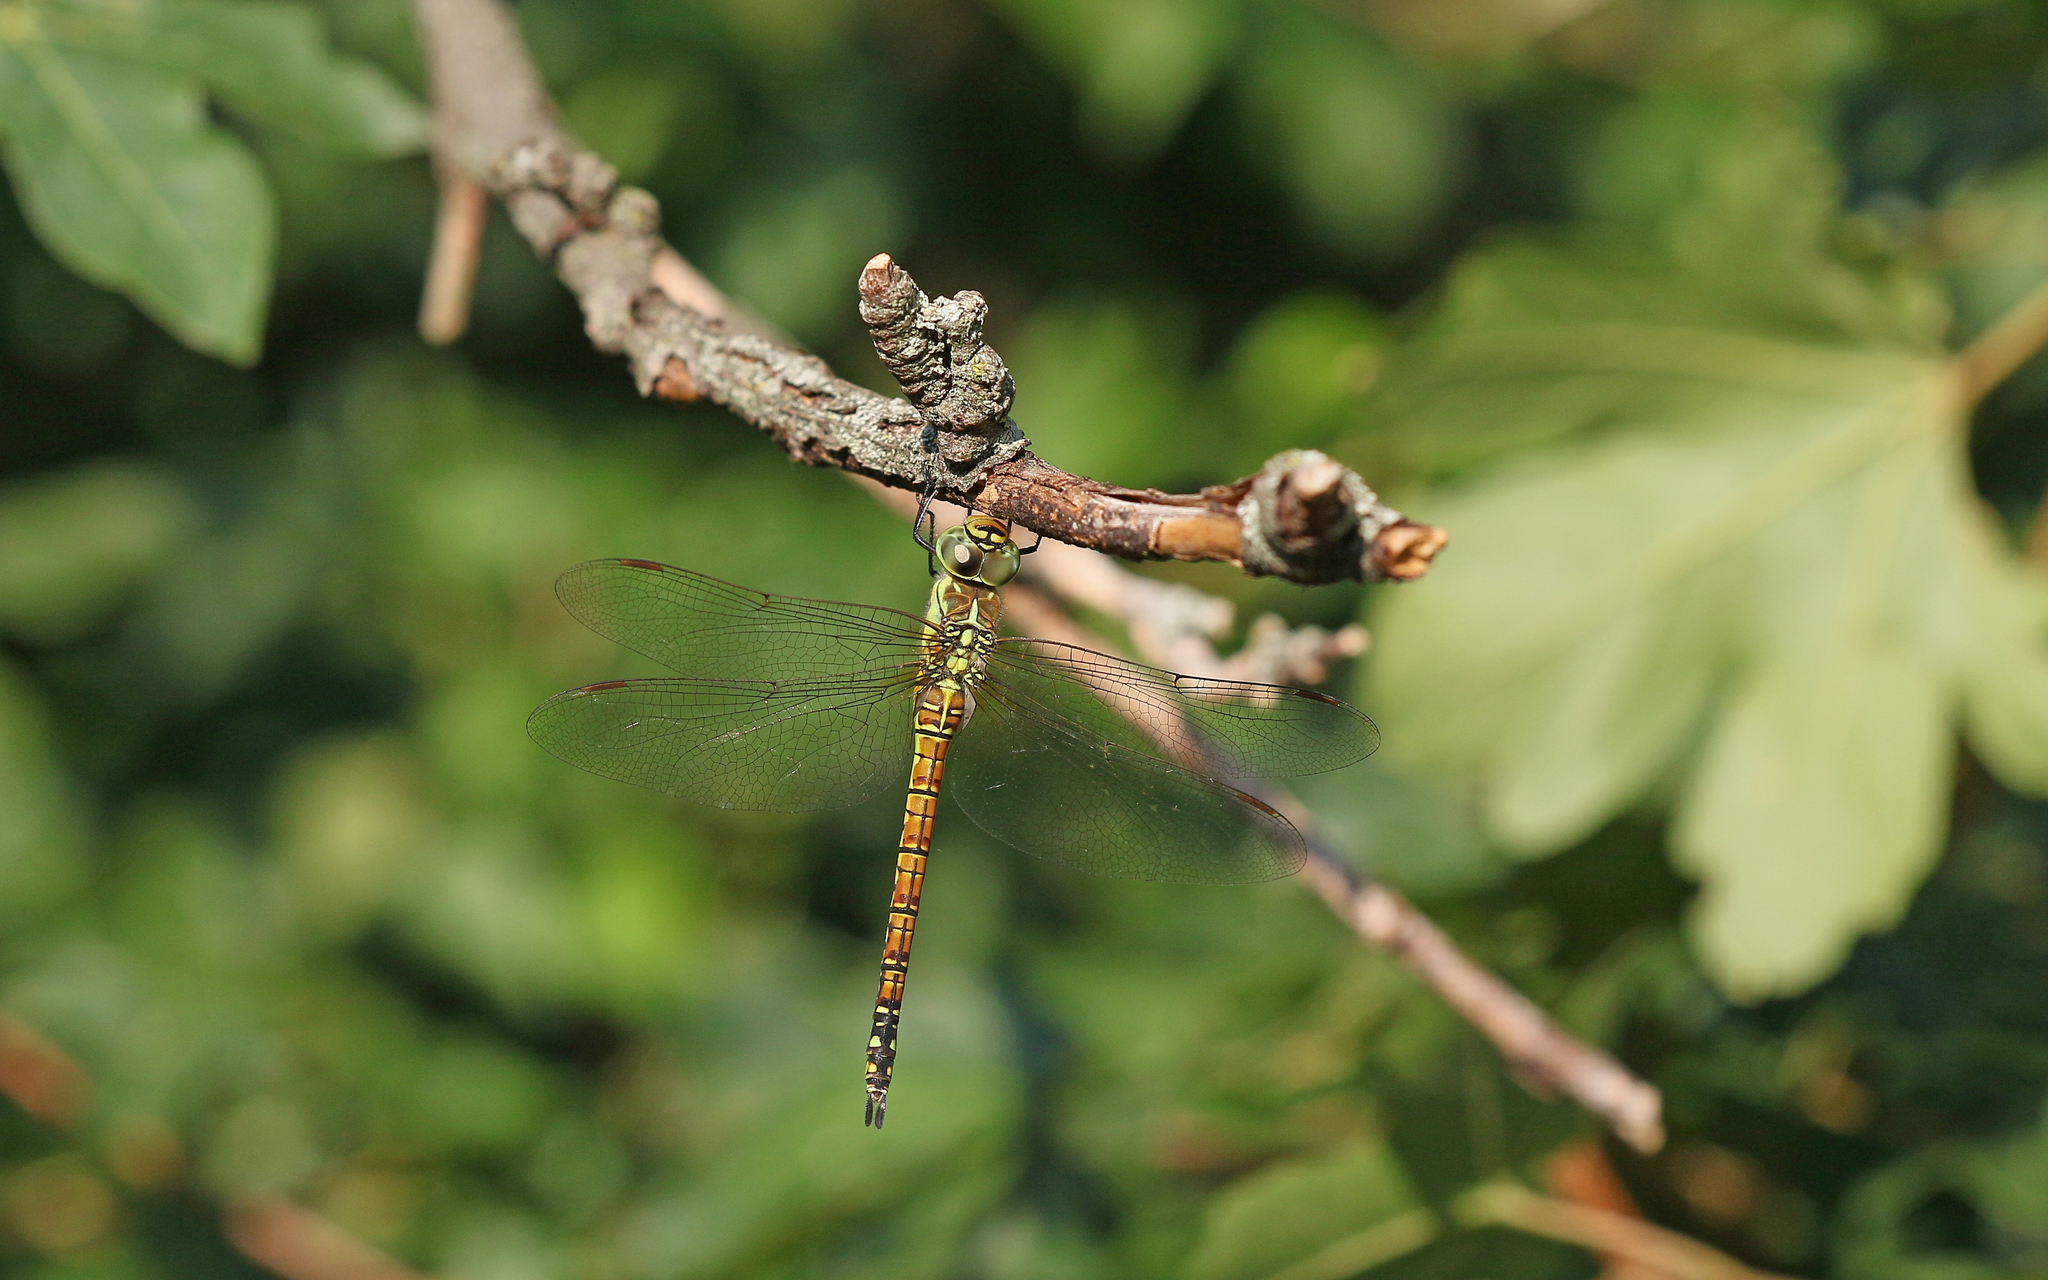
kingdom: Animalia
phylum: Arthropoda
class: Insecta
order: Odonata
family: Aeshnidae
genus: Aeshna
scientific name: Aeshna affinis
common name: Southern migrant hawker
